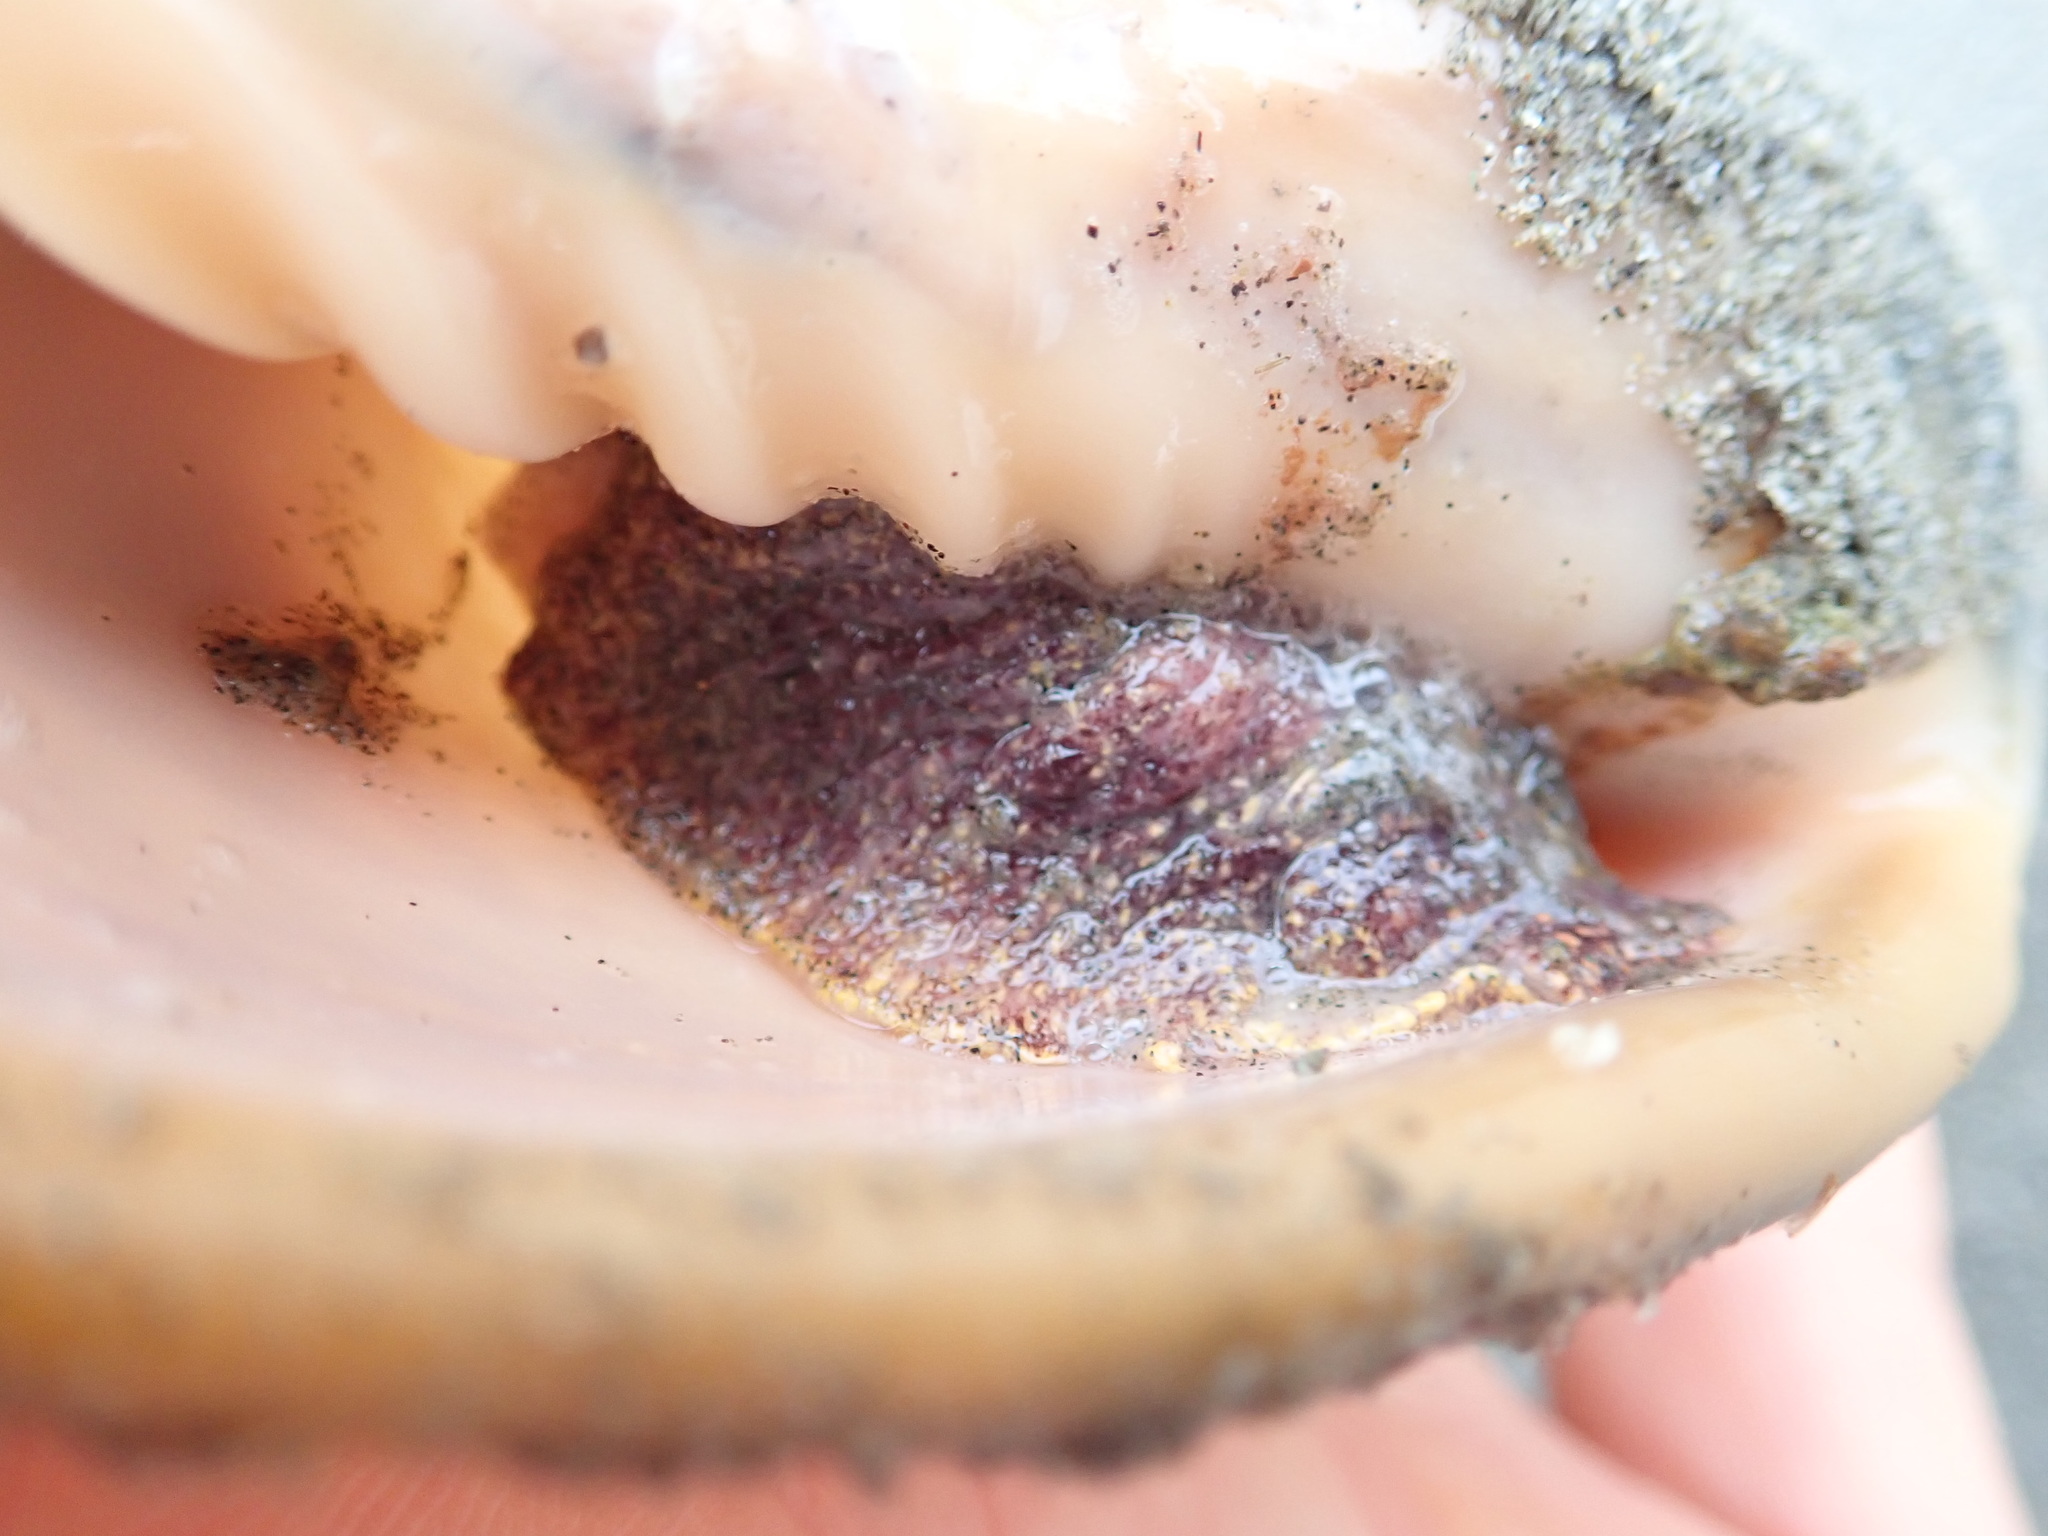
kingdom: Animalia
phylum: Mollusca
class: Gastropoda
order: Neogastropoda
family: Volutidae
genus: Alcithoe
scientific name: Alcithoe arabica
